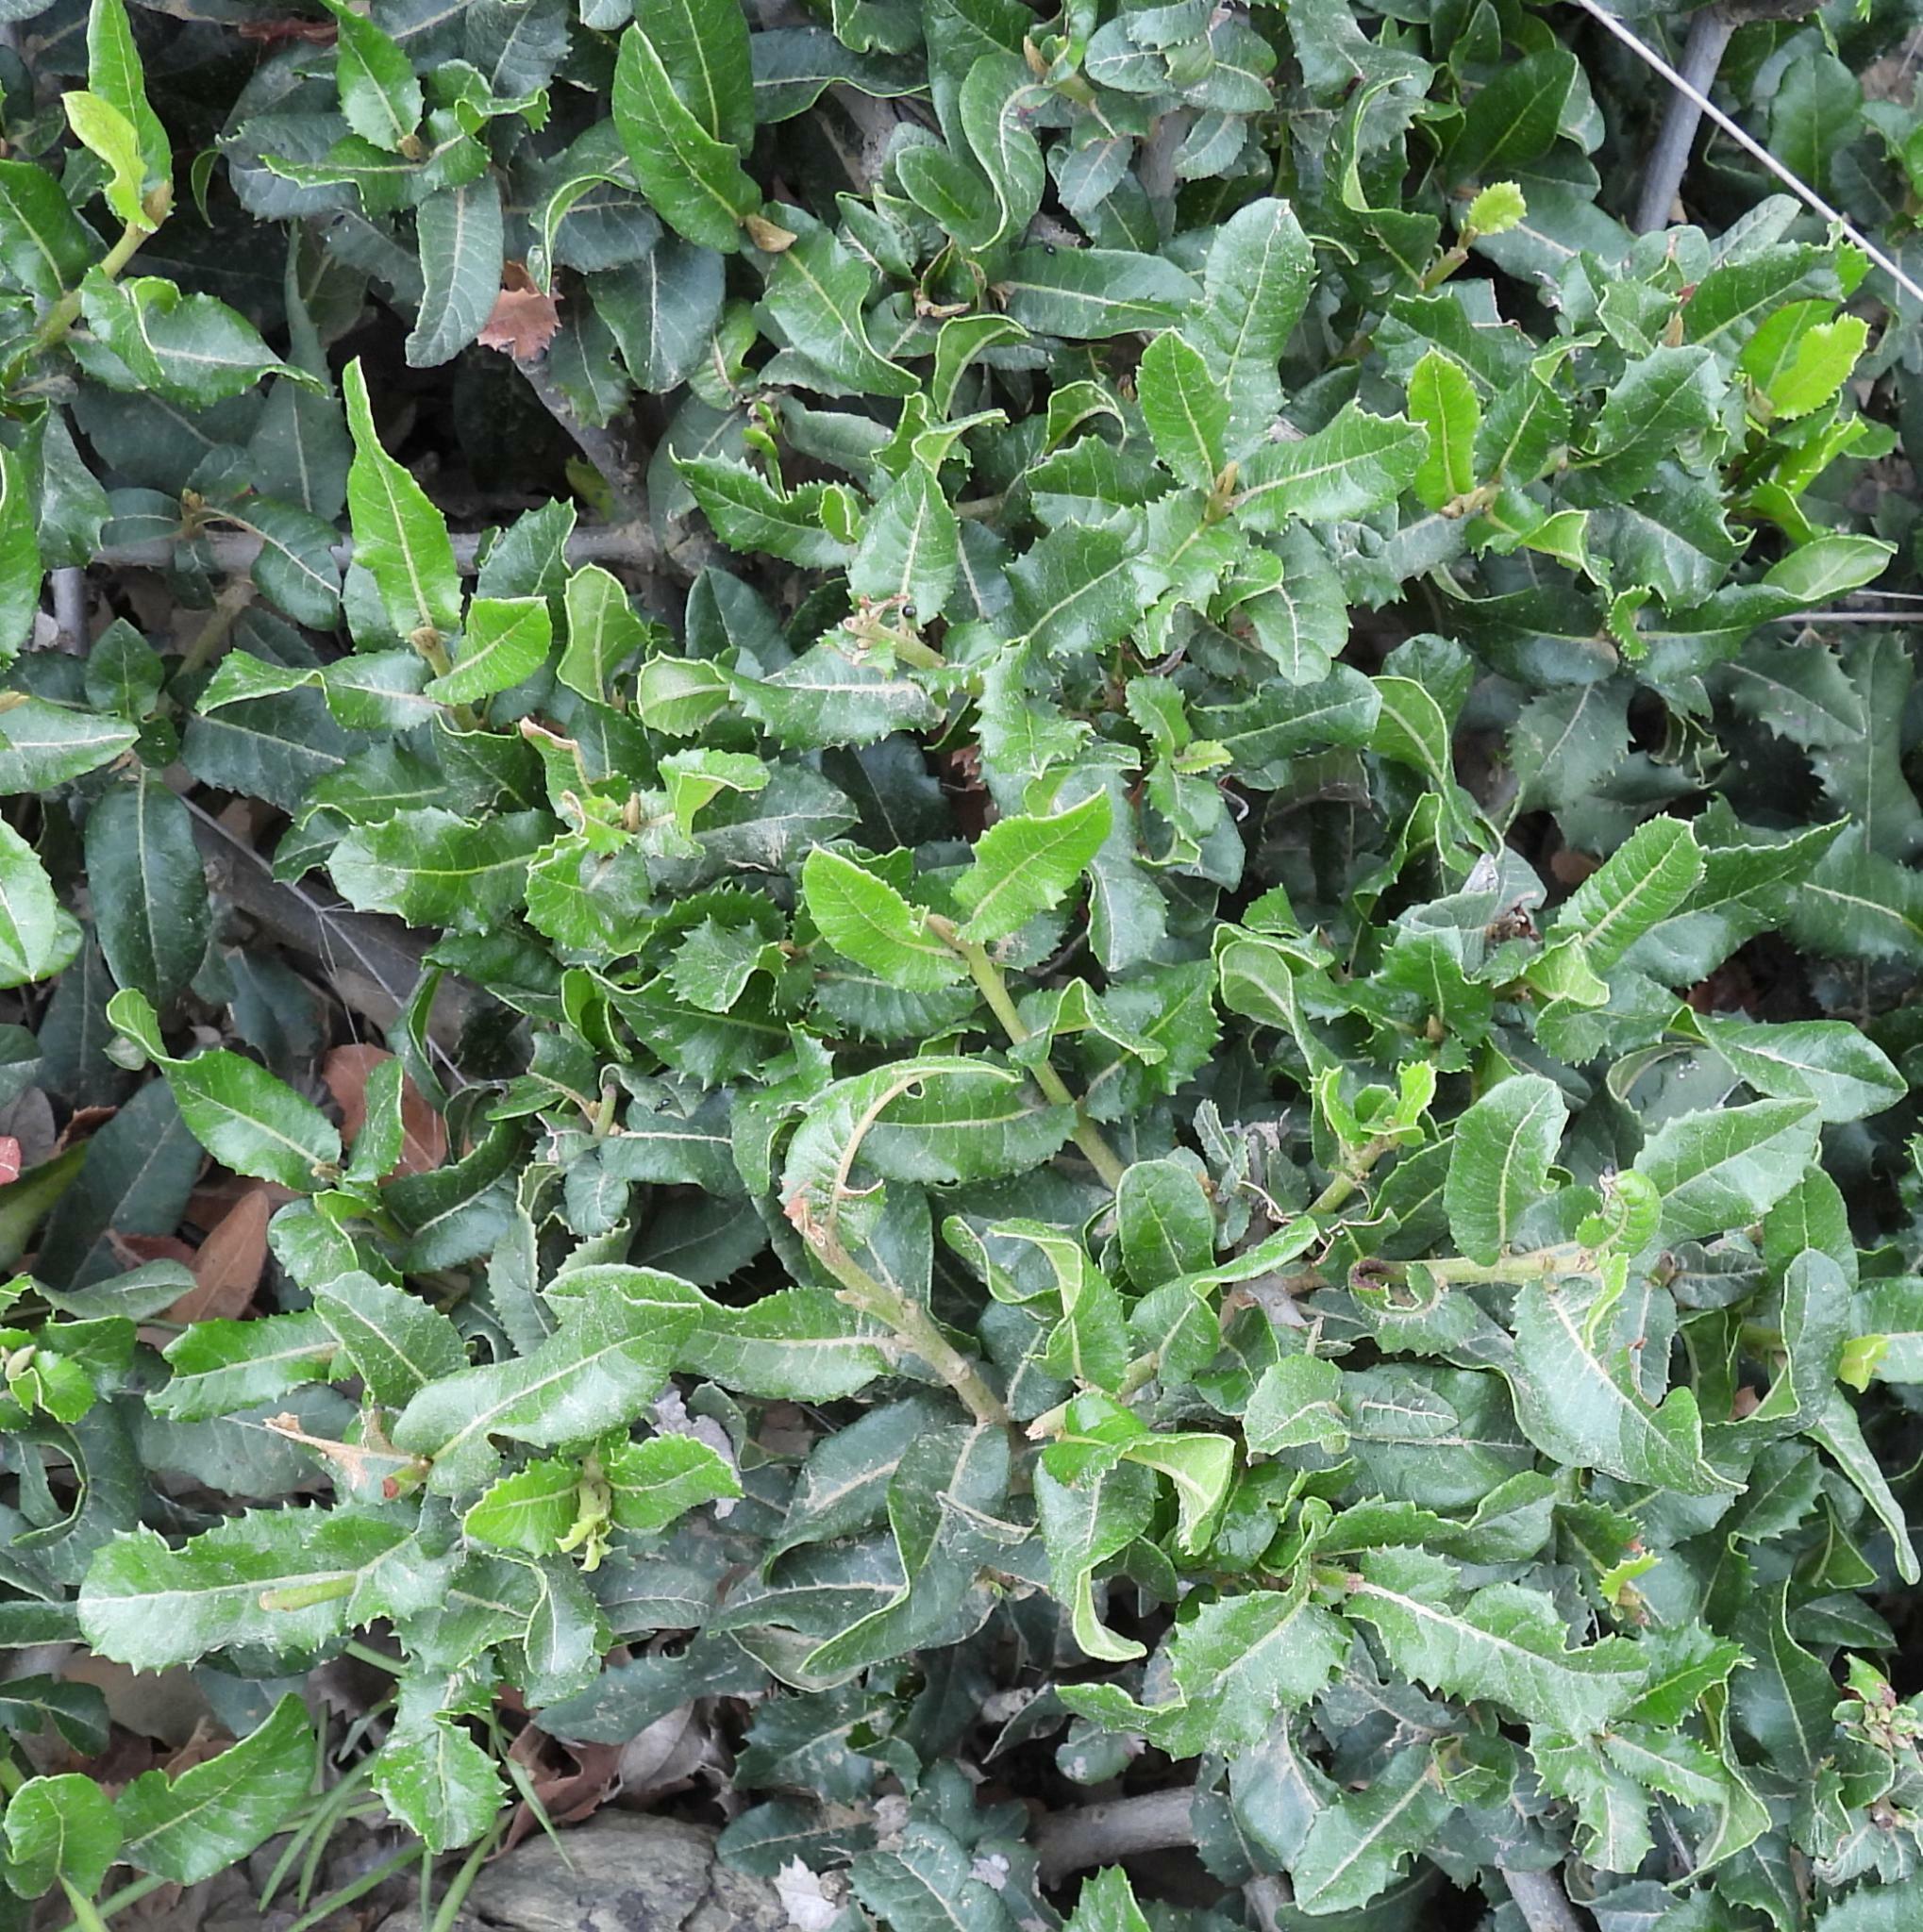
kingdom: Plantae
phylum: Tracheophyta
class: Magnoliopsida
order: Sapindales
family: Sapindaceae
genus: Pappea
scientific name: Pappea capensis
